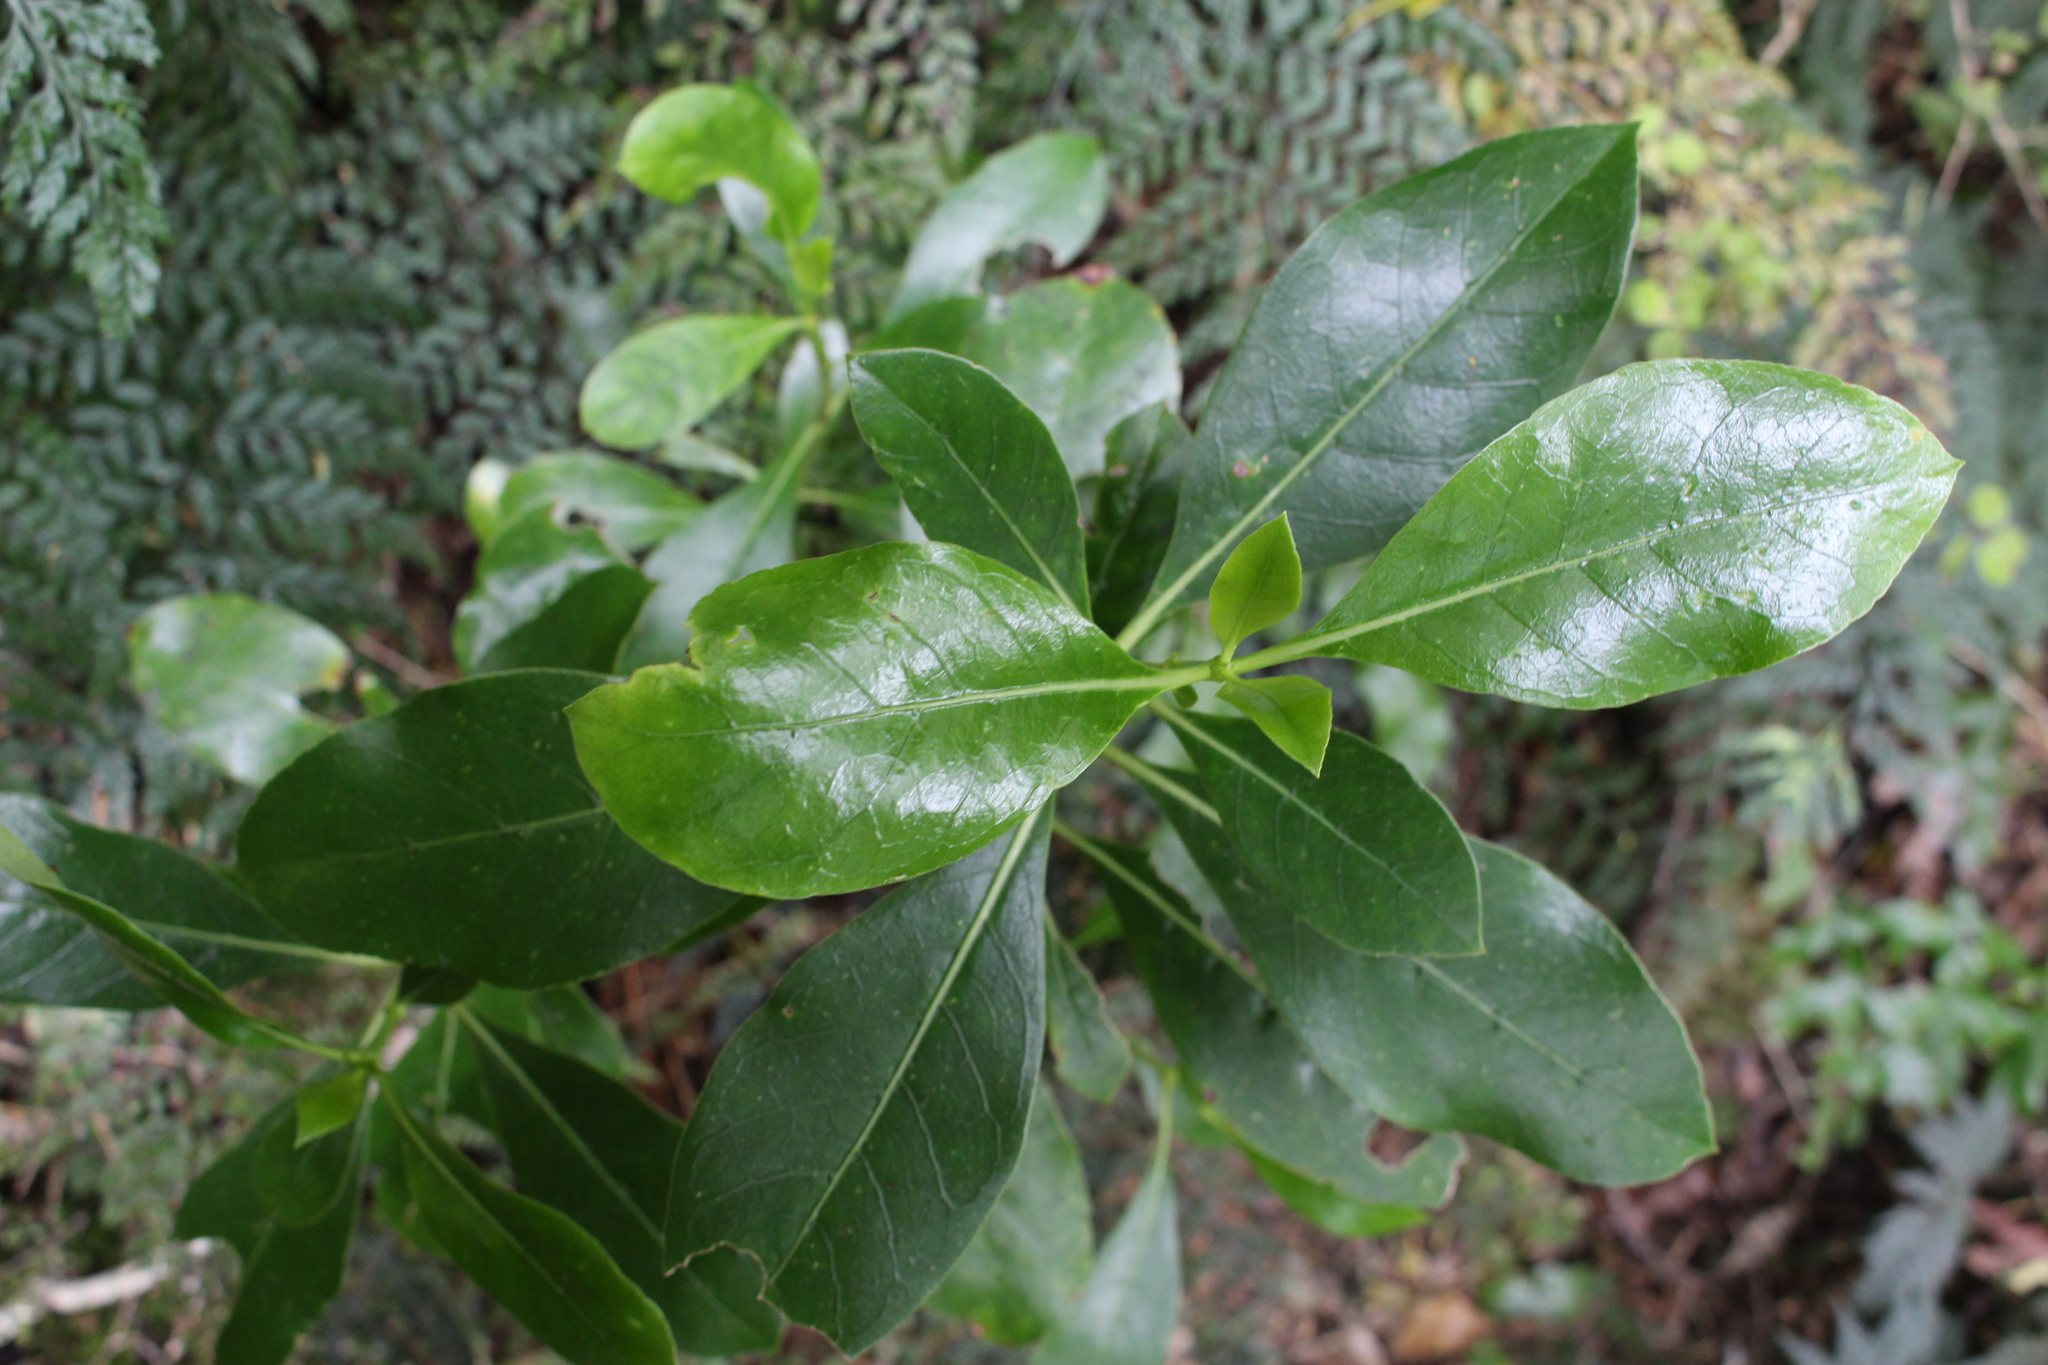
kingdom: Plantae
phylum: Tracheophyta
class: Magnoliopsida
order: Gentianales
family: Rubiaceae
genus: Coprosma
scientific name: Coprosma lucida
